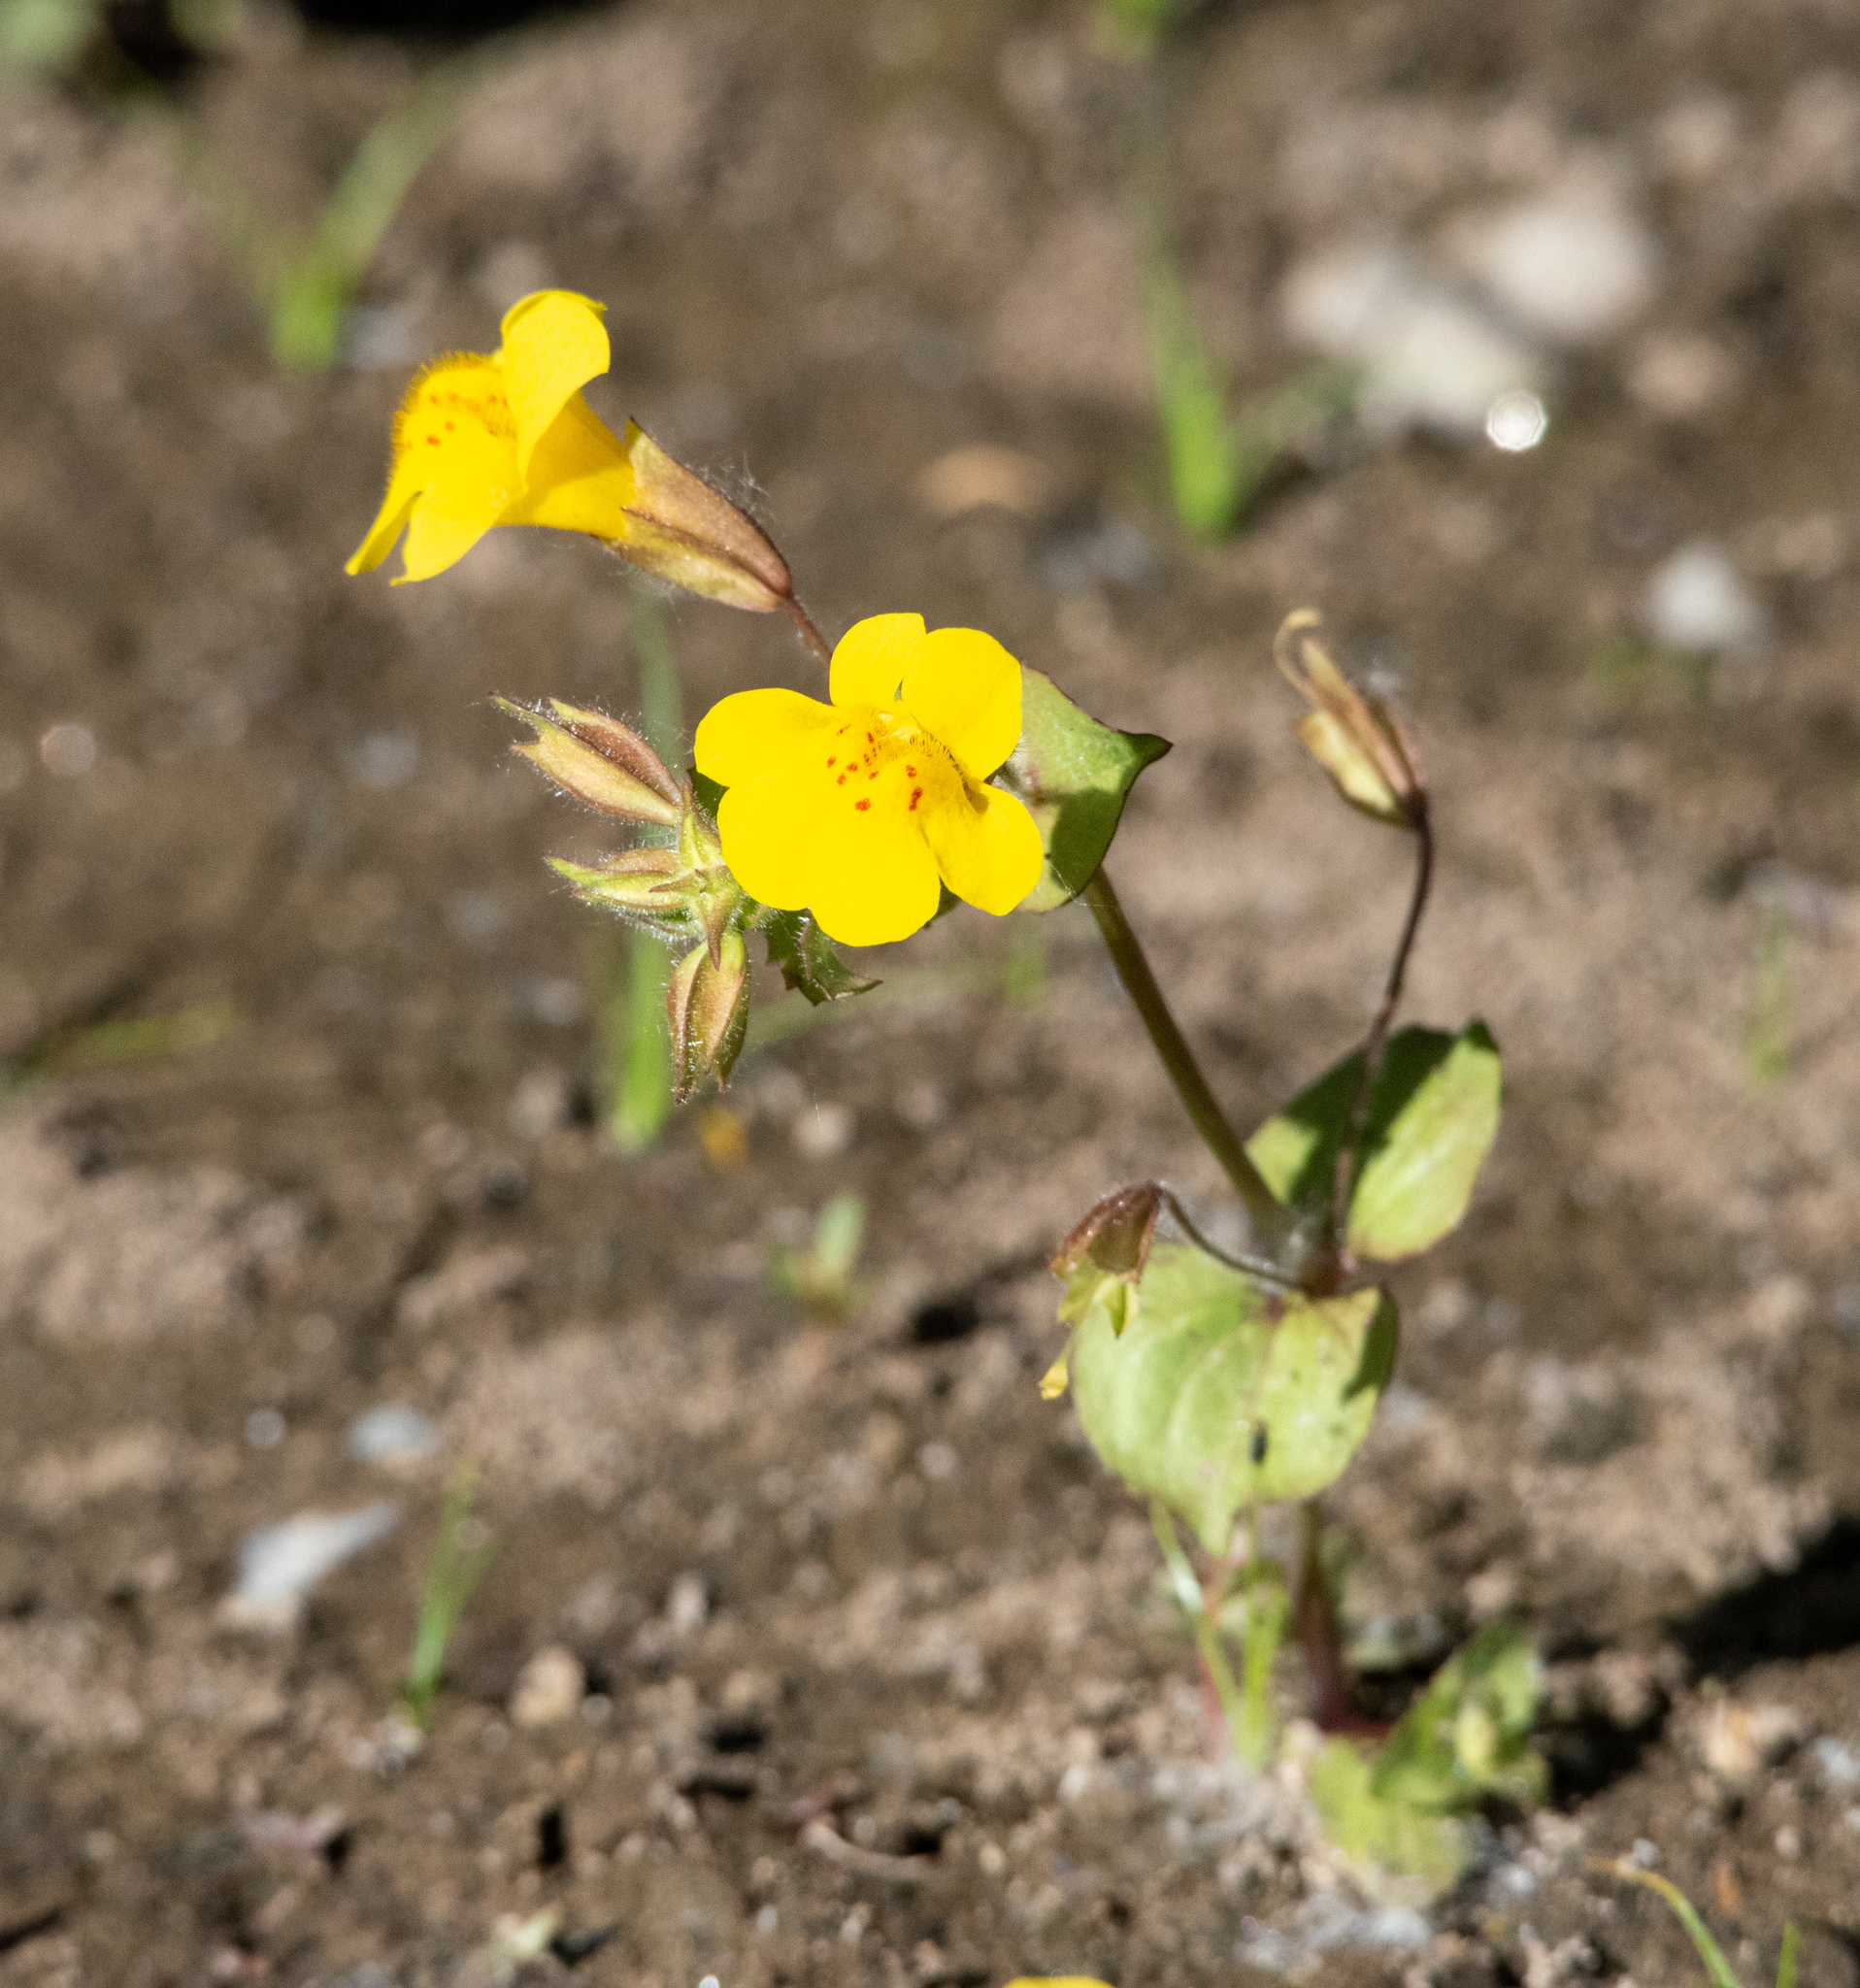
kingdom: Plantae
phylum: Tracheophyta
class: Magnoliopsida
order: Lamiales
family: Phrymaceae
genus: Erythranthe
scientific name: Erythranthe guttata
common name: Monkeyflower
